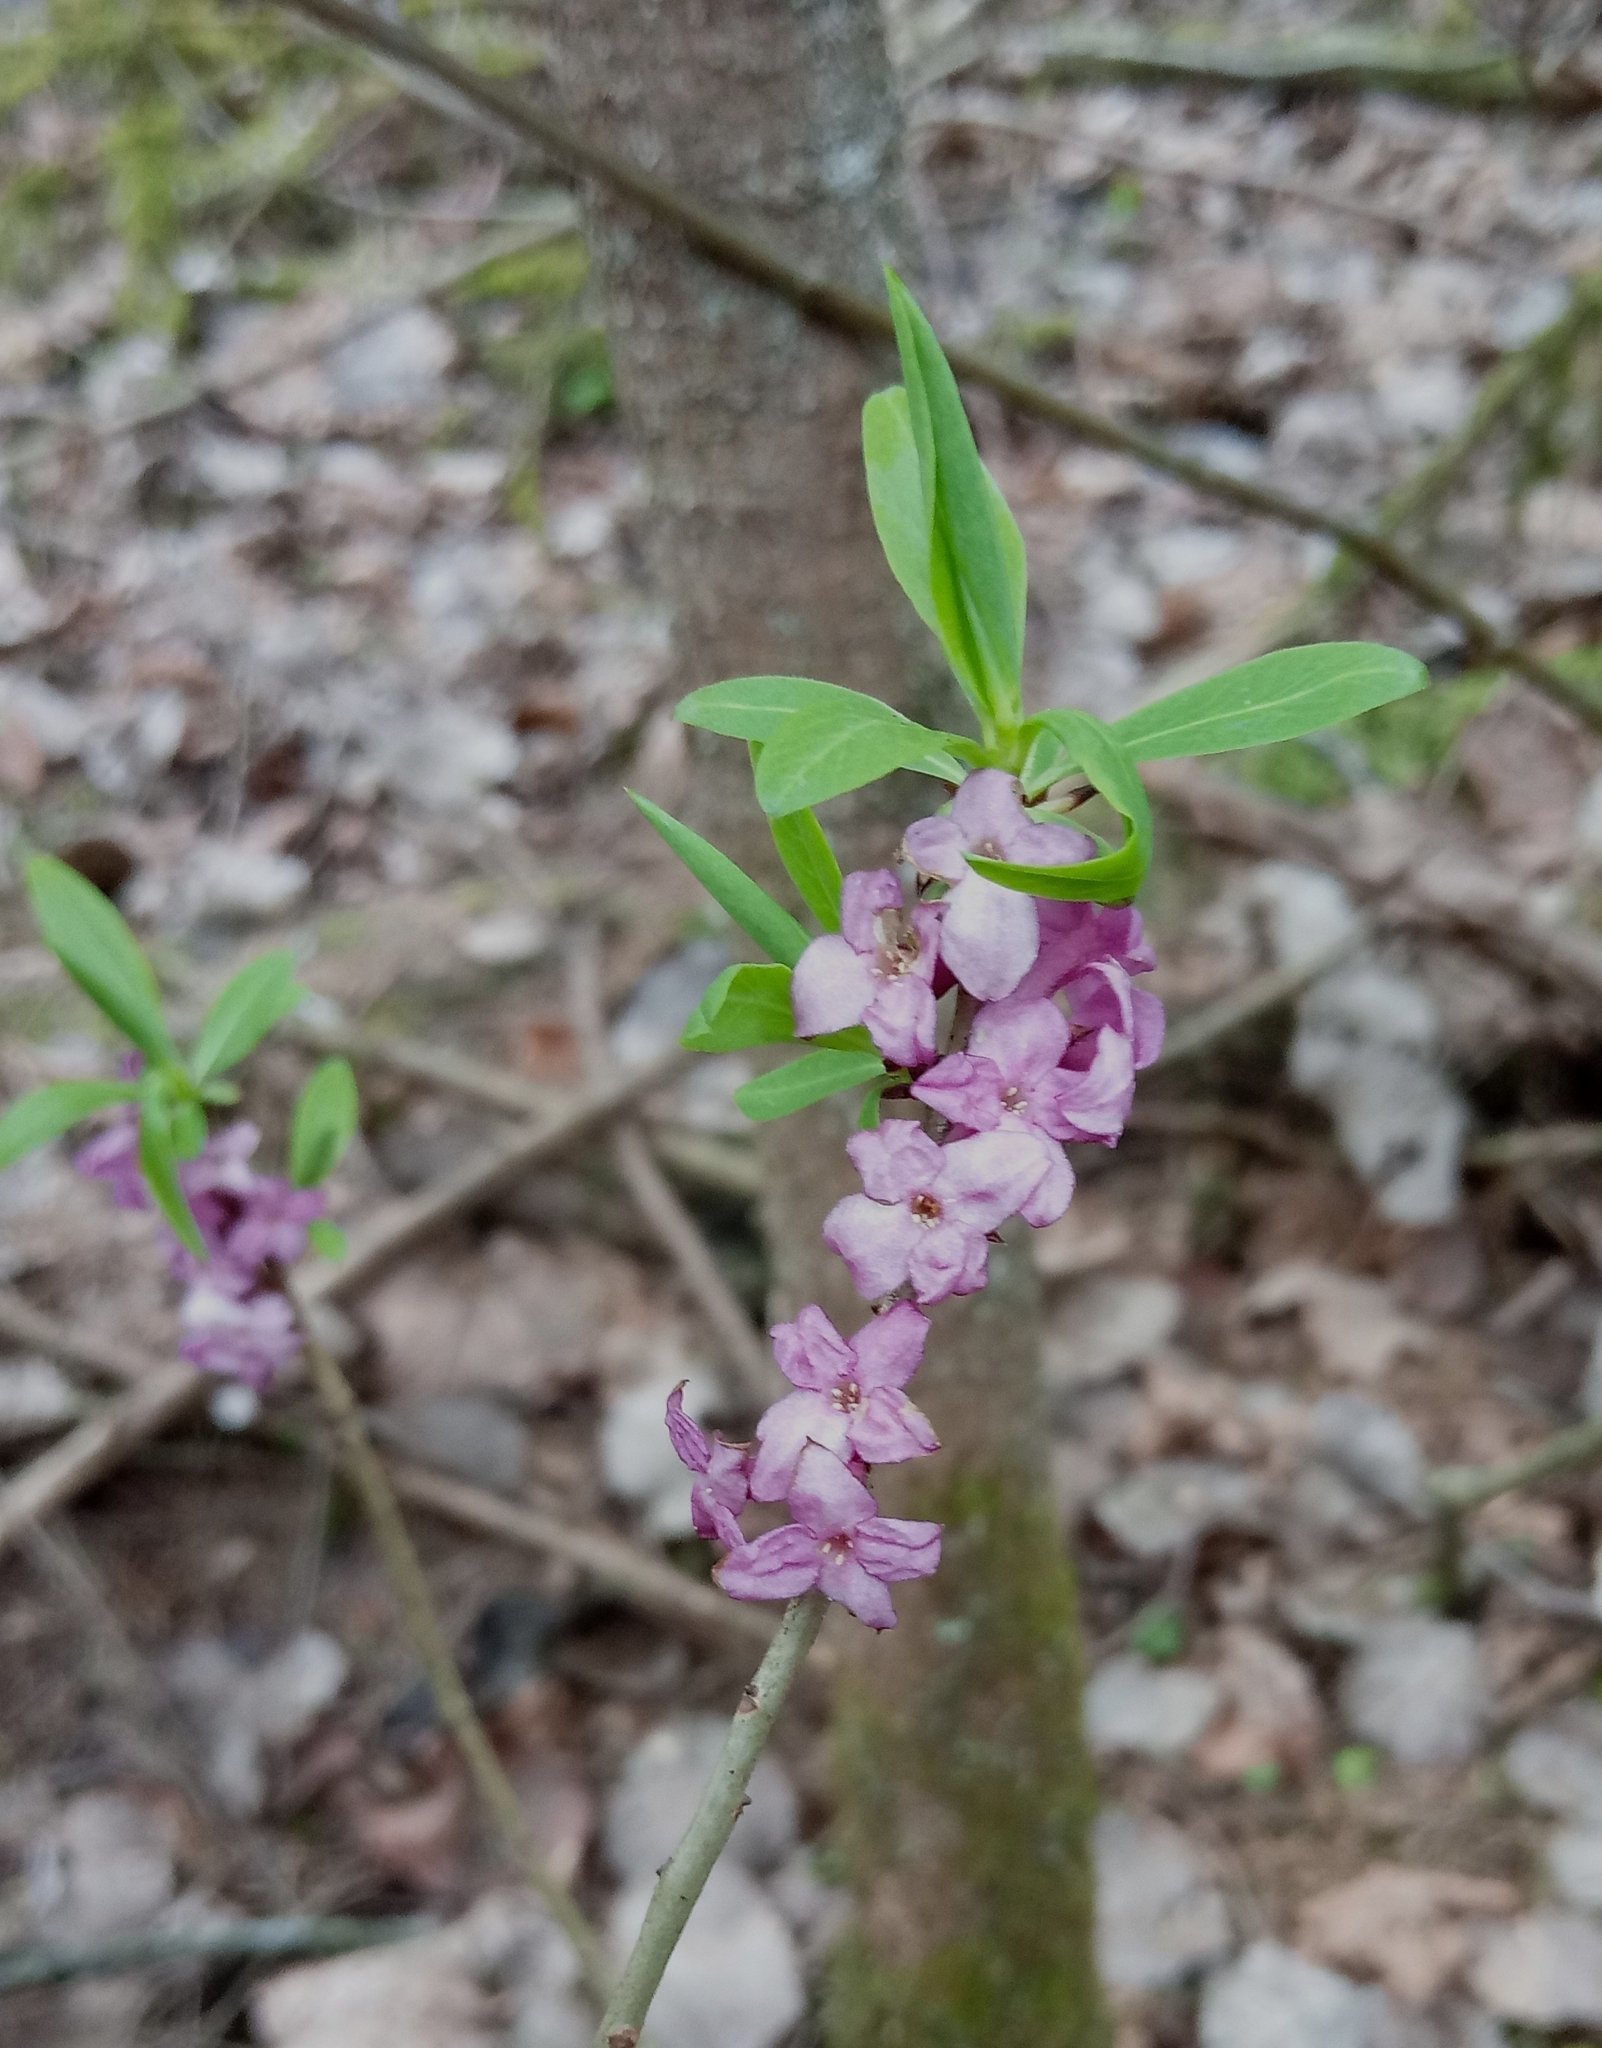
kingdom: Plantae
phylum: Tracheophyta
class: Magnoliopsida
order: Malvales
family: Thymelaeaceae
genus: Daphne
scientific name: Daphne mezereum
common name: Mezereon
